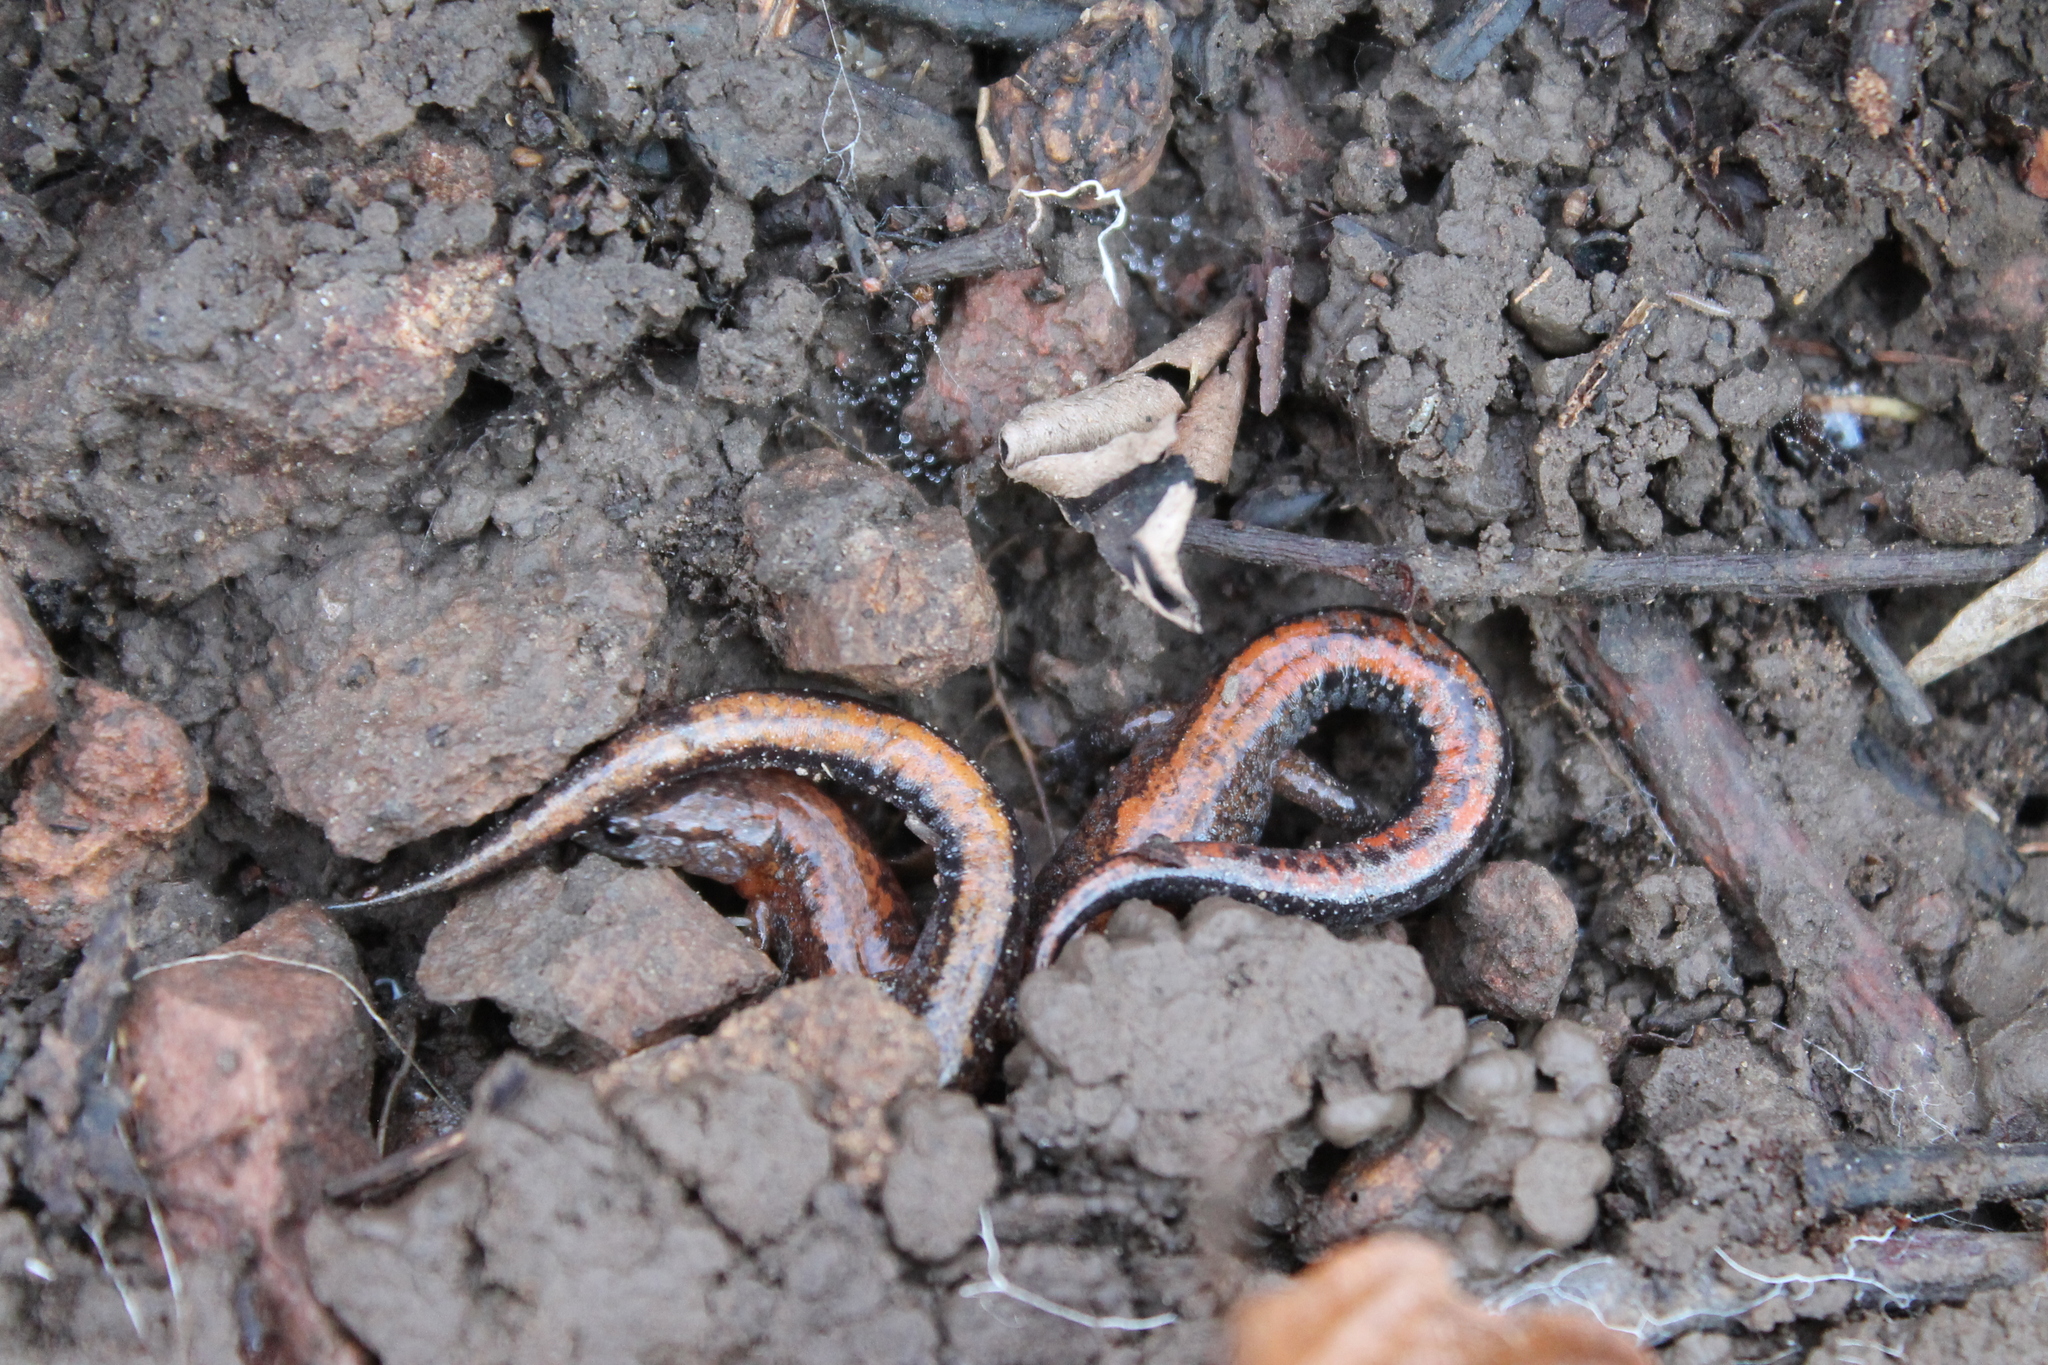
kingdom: Animalia
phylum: Chordata
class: Amphibia
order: Caudata
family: Plethodontidae
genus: Plethodon
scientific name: Plethodon dorsalis
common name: Northern zigzag salamander
